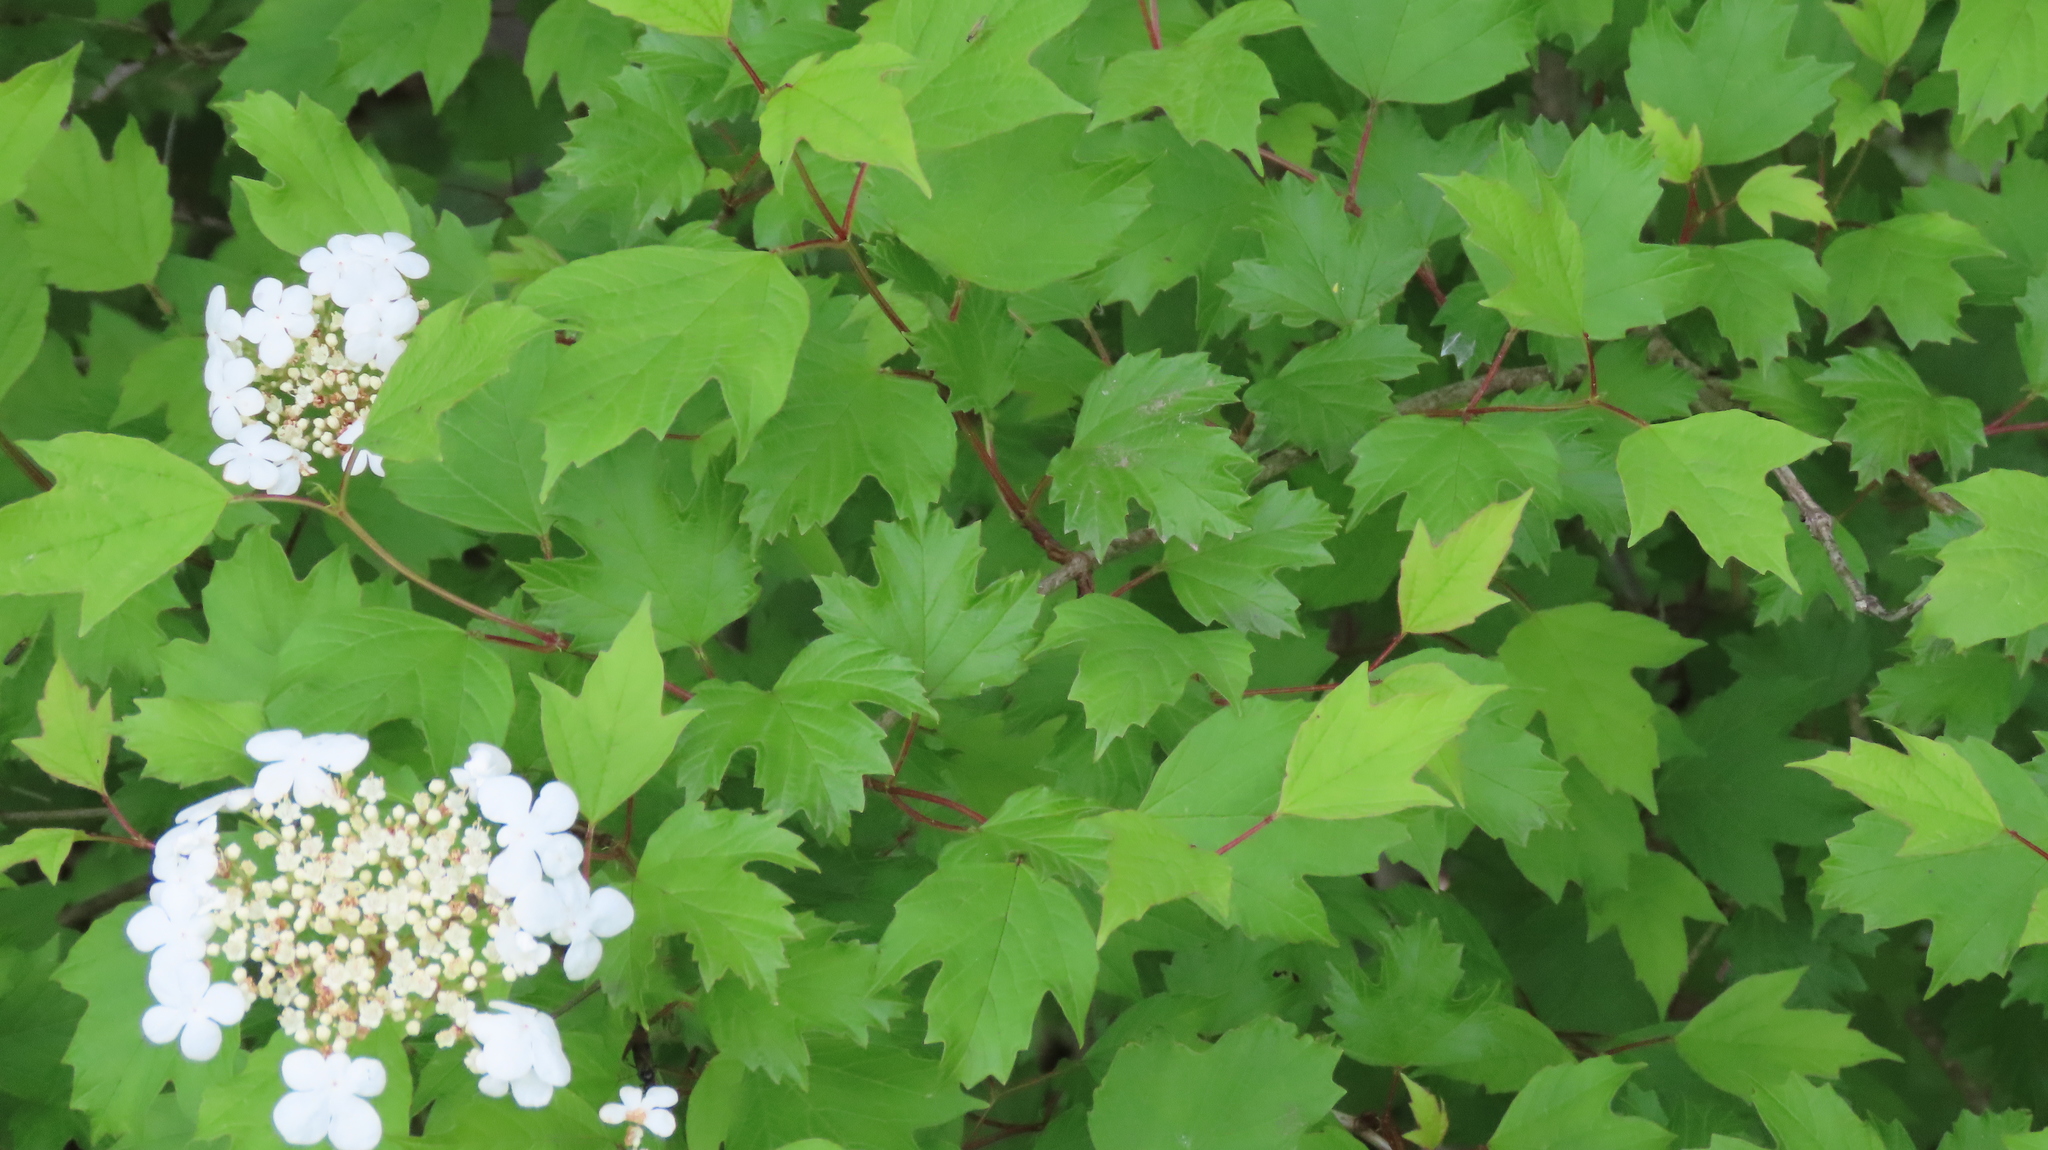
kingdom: Plantae
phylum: Tracheophyta
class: Magnoliopsida
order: Dipsacales
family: Viburnaceae
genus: Viburnum
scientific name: Viburnum opulus
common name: Guelder-rose
